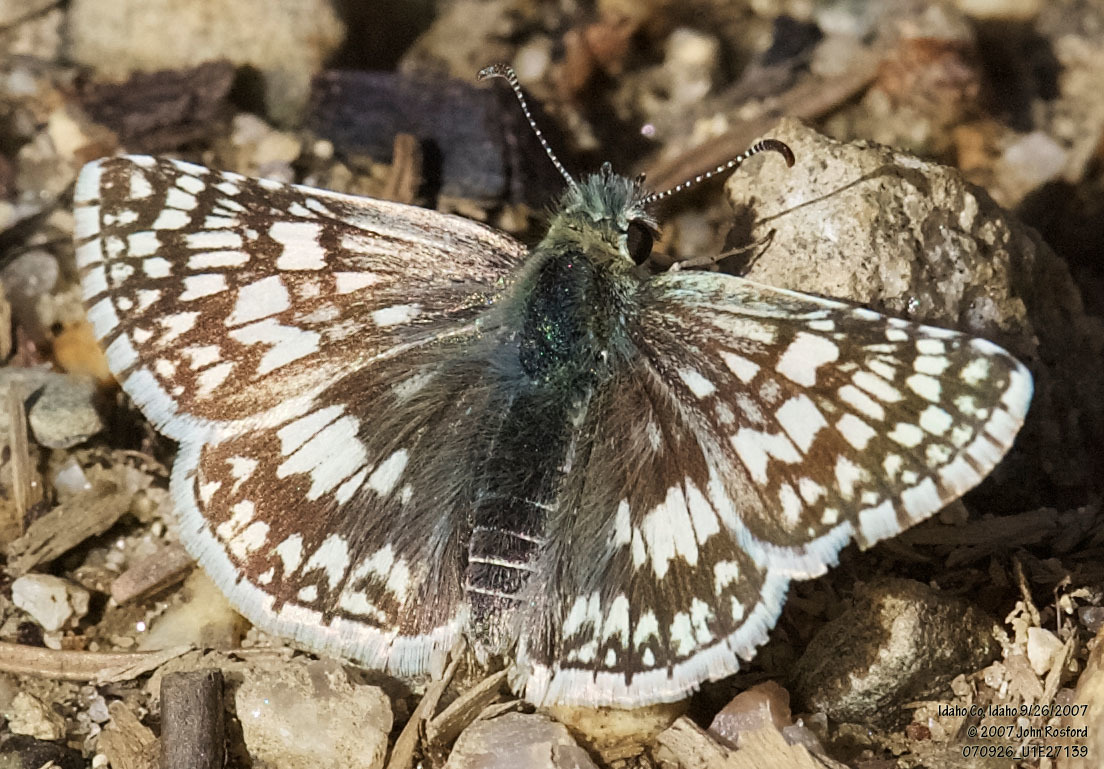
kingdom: Animalia
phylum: Arthropoda
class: Insecta
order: Lepidoptera
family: Hesperiidae
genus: Burnsius
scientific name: Burnsius communis
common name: Common checkered-skipper
